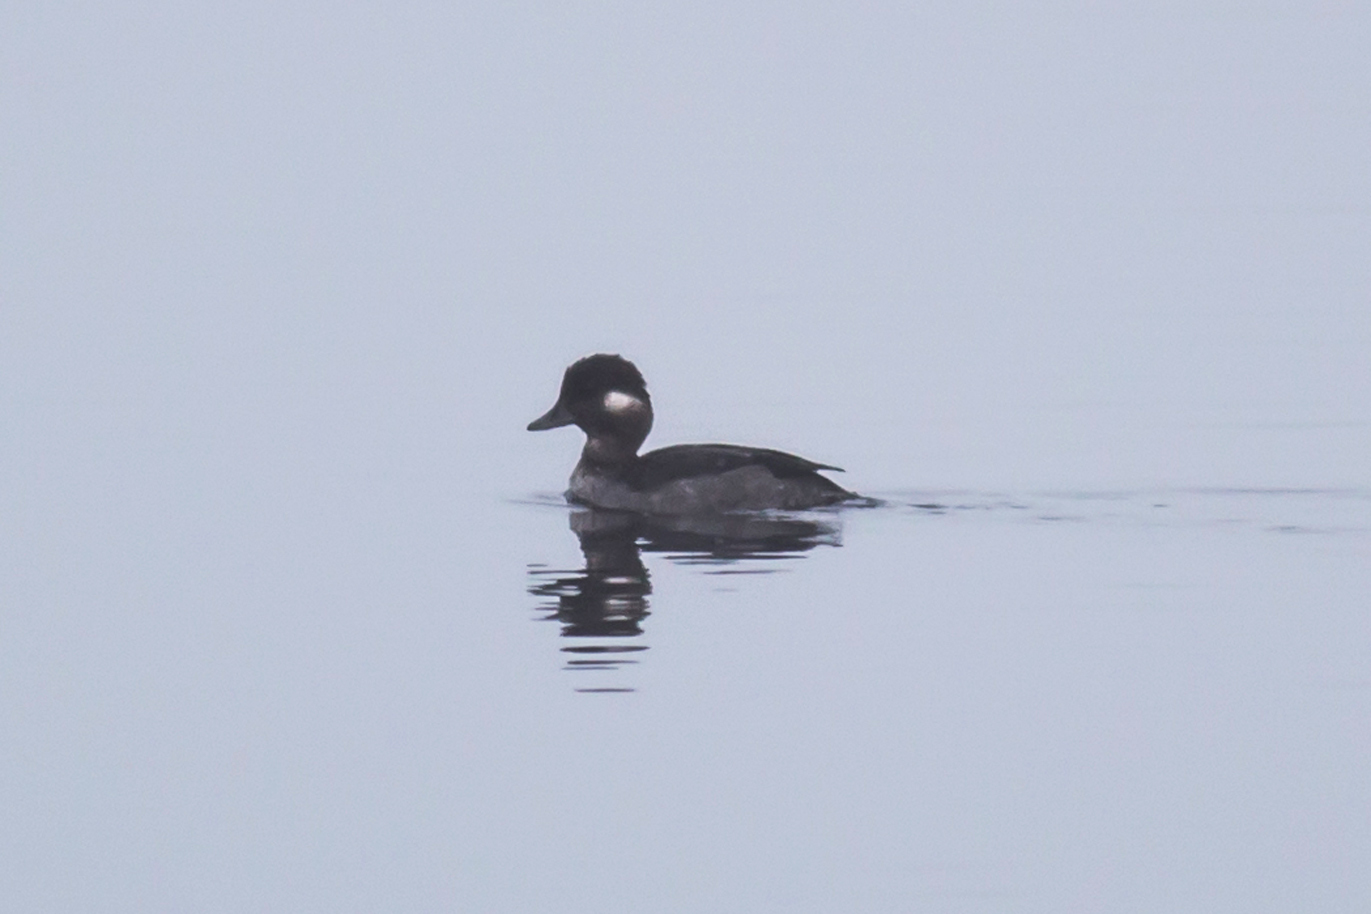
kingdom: Animalia
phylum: Chordata
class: Aves
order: Anseriformes
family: Anatidae
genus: Bucephala
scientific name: Bucephala albeola
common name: Bufflehead
